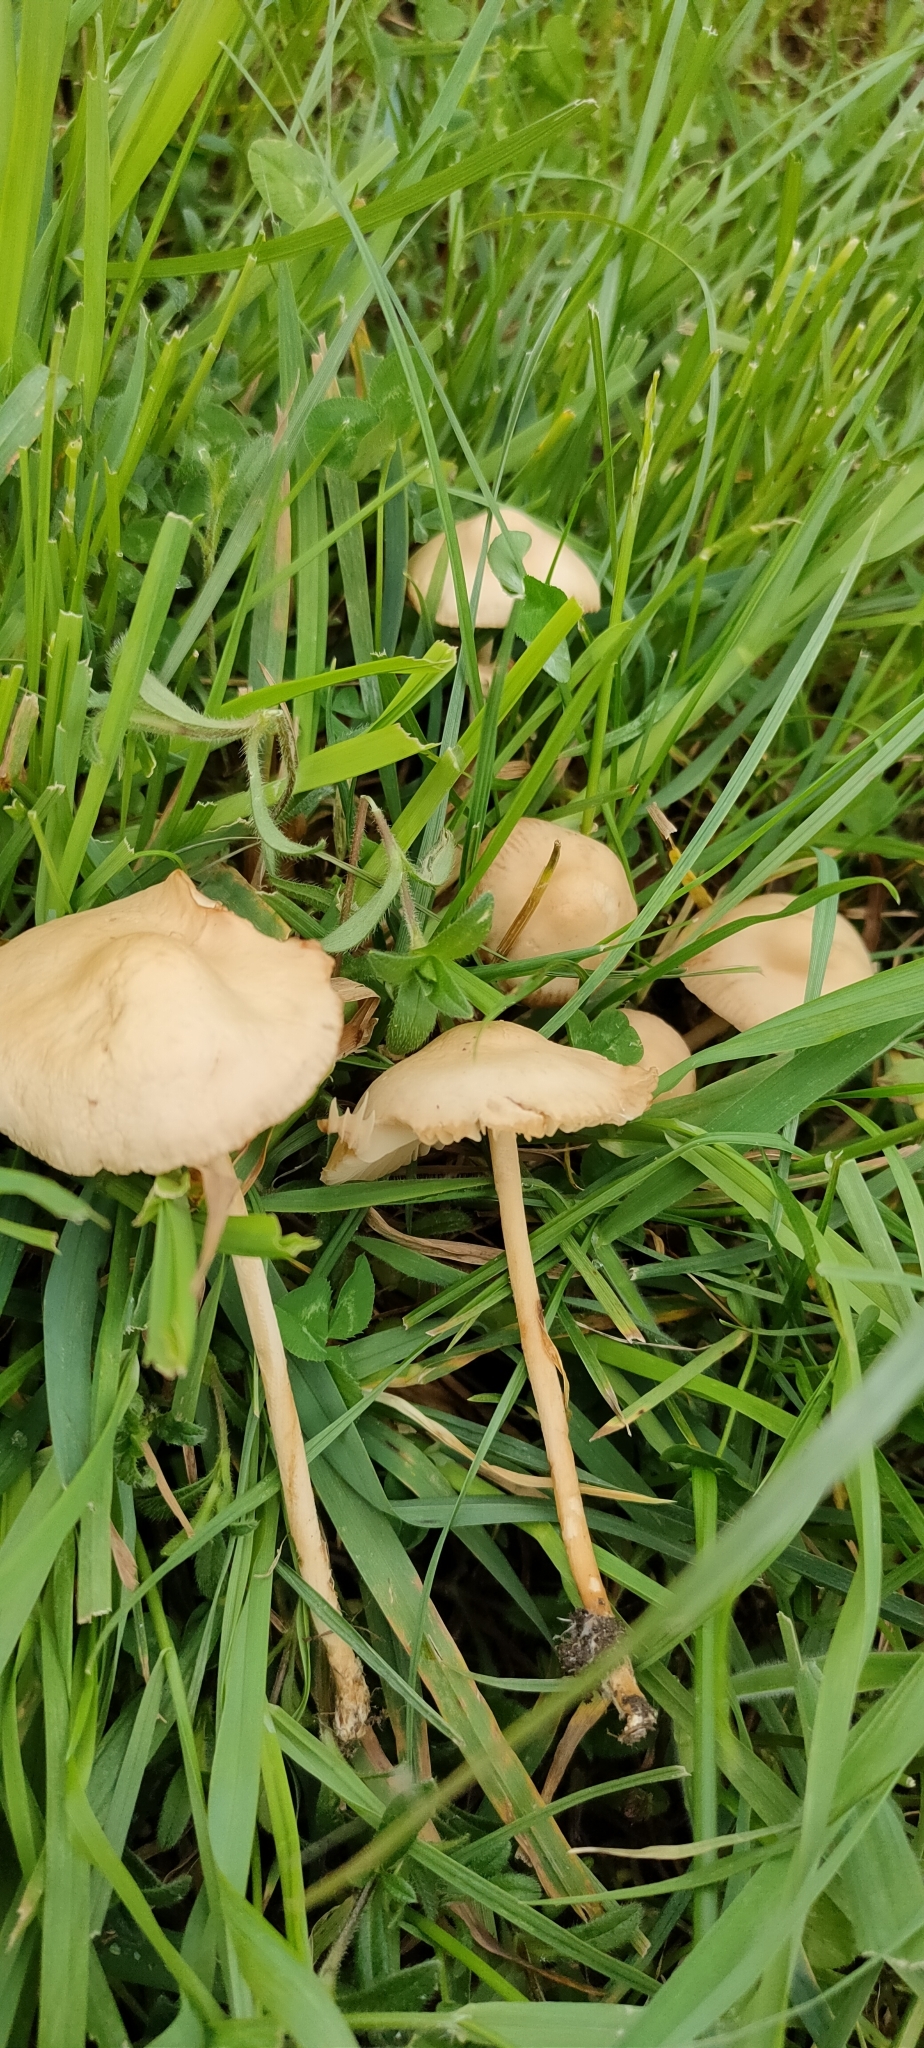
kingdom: Fungi
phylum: Basidiomycota
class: Agaricomycetes
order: Agaricales
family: Marasmiaceae
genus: Marasmius
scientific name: Marasmius oreades
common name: Fairy ring champignon
